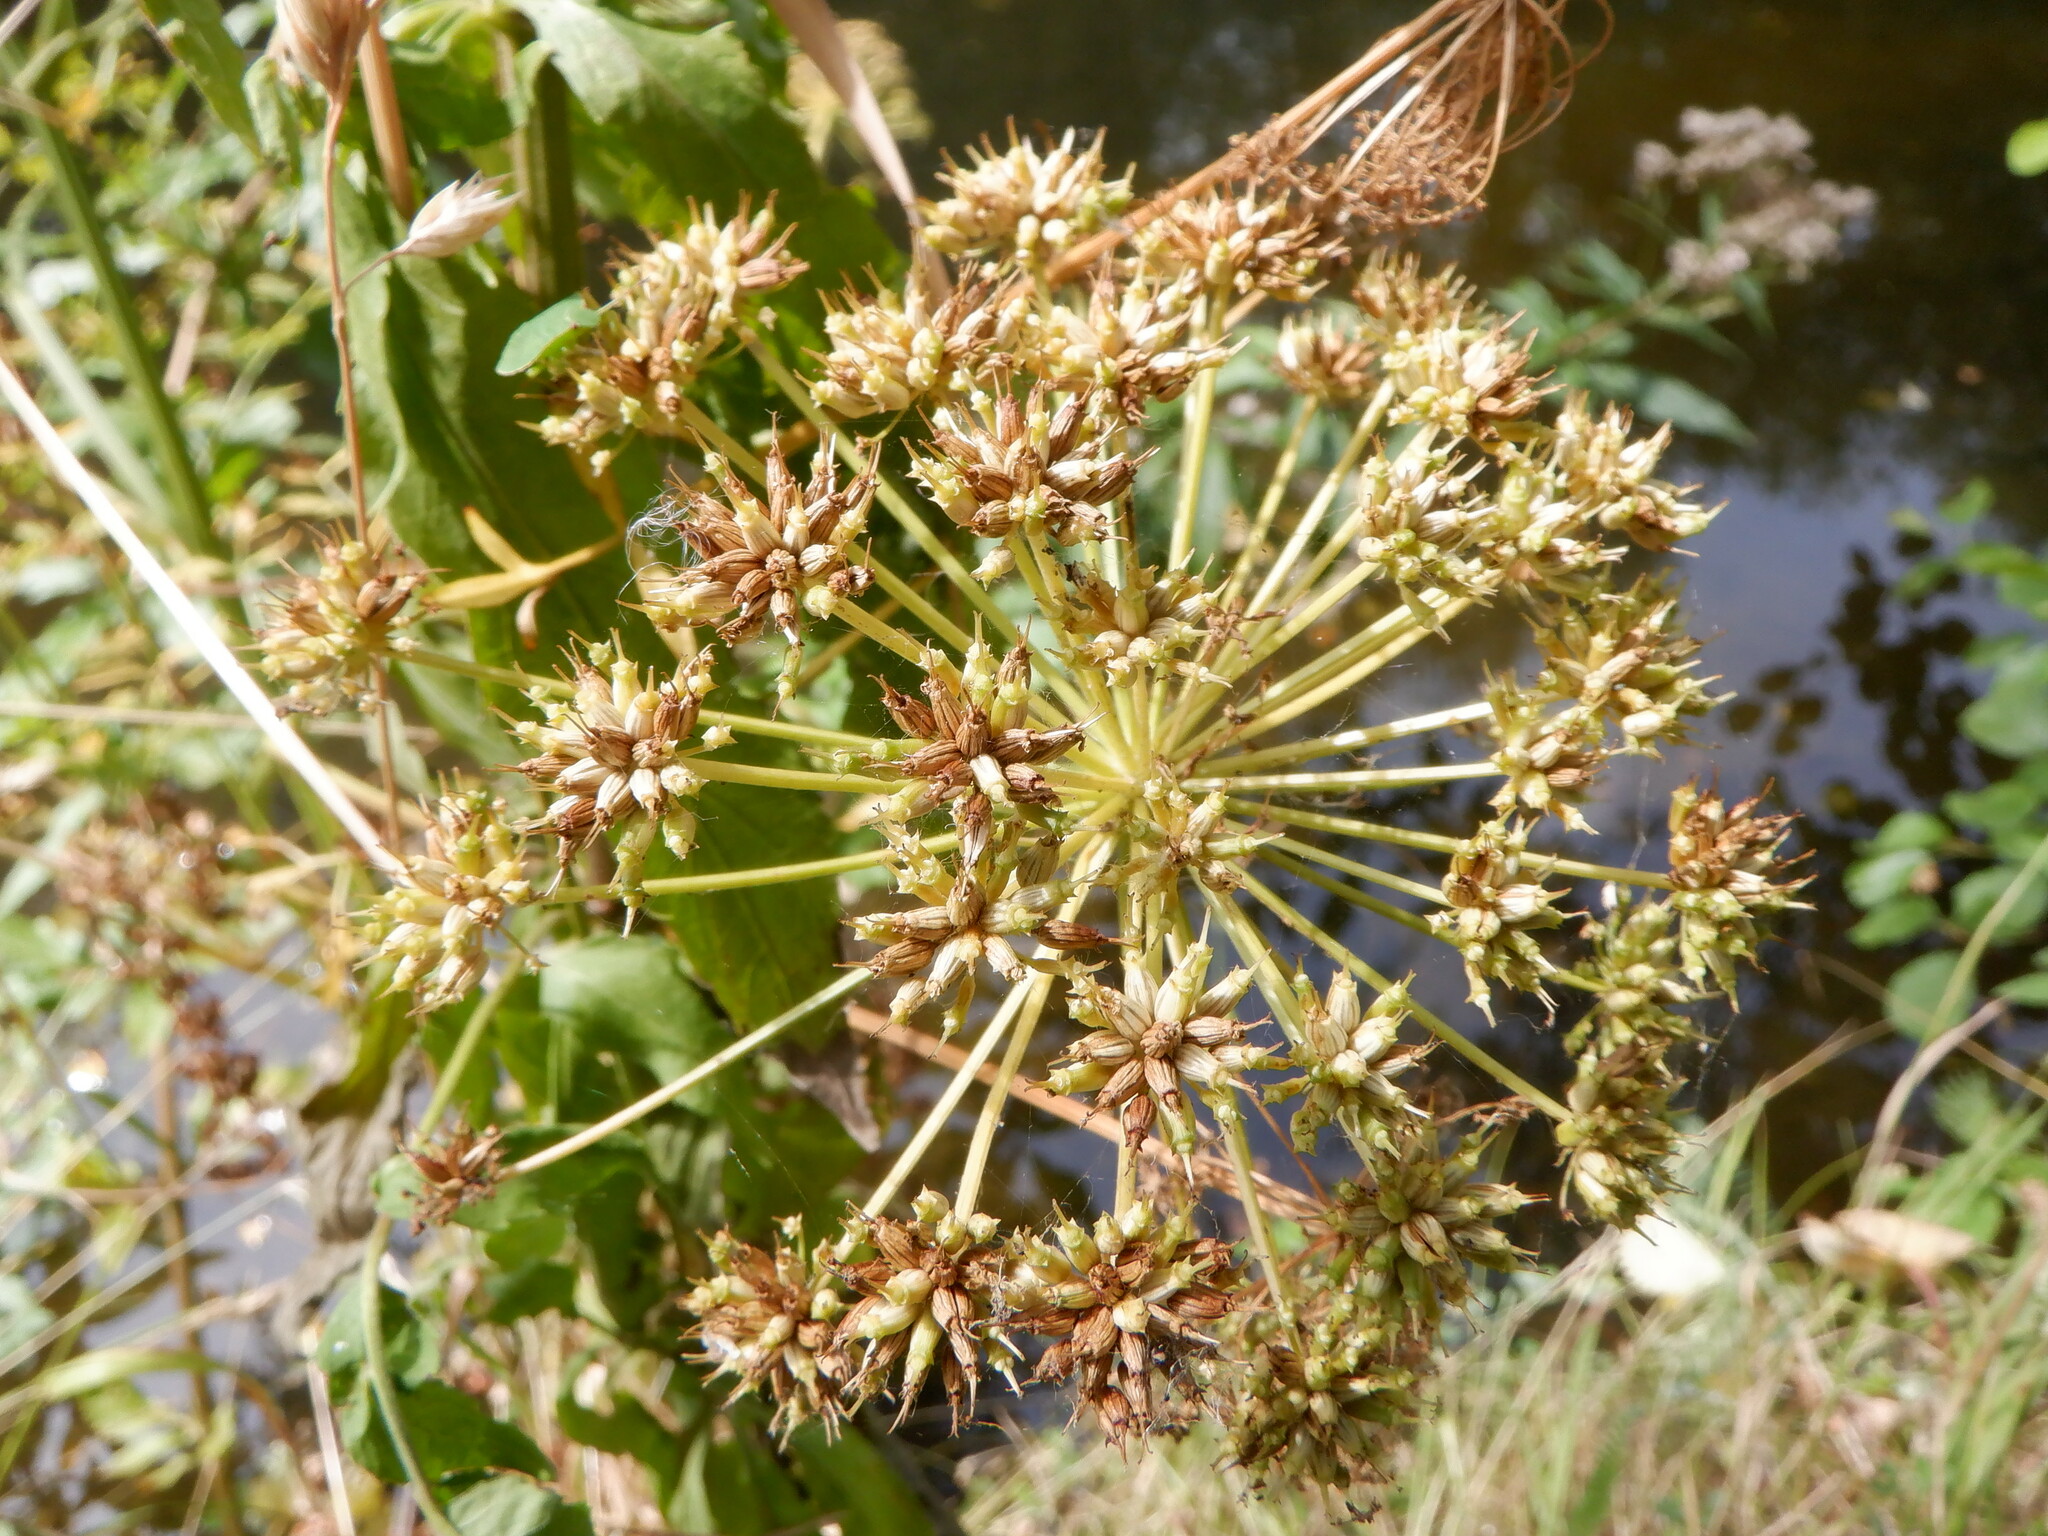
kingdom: Plantae
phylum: Tracheophyta
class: Magnoliopsida
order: Apiales
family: Apiaceae
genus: Oenanthe
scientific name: Oenanthe crocata
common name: Hemlock water-dropwort
